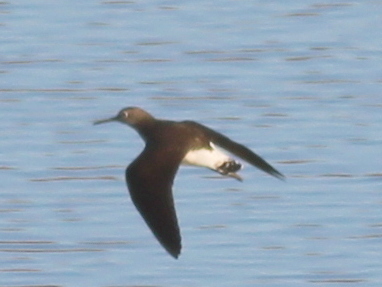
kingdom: Animalia
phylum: Chordata
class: Aves
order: Charadriiformes
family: Scolopacidae
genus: Tringa
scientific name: Tringa ochropus
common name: Green sandpiper
